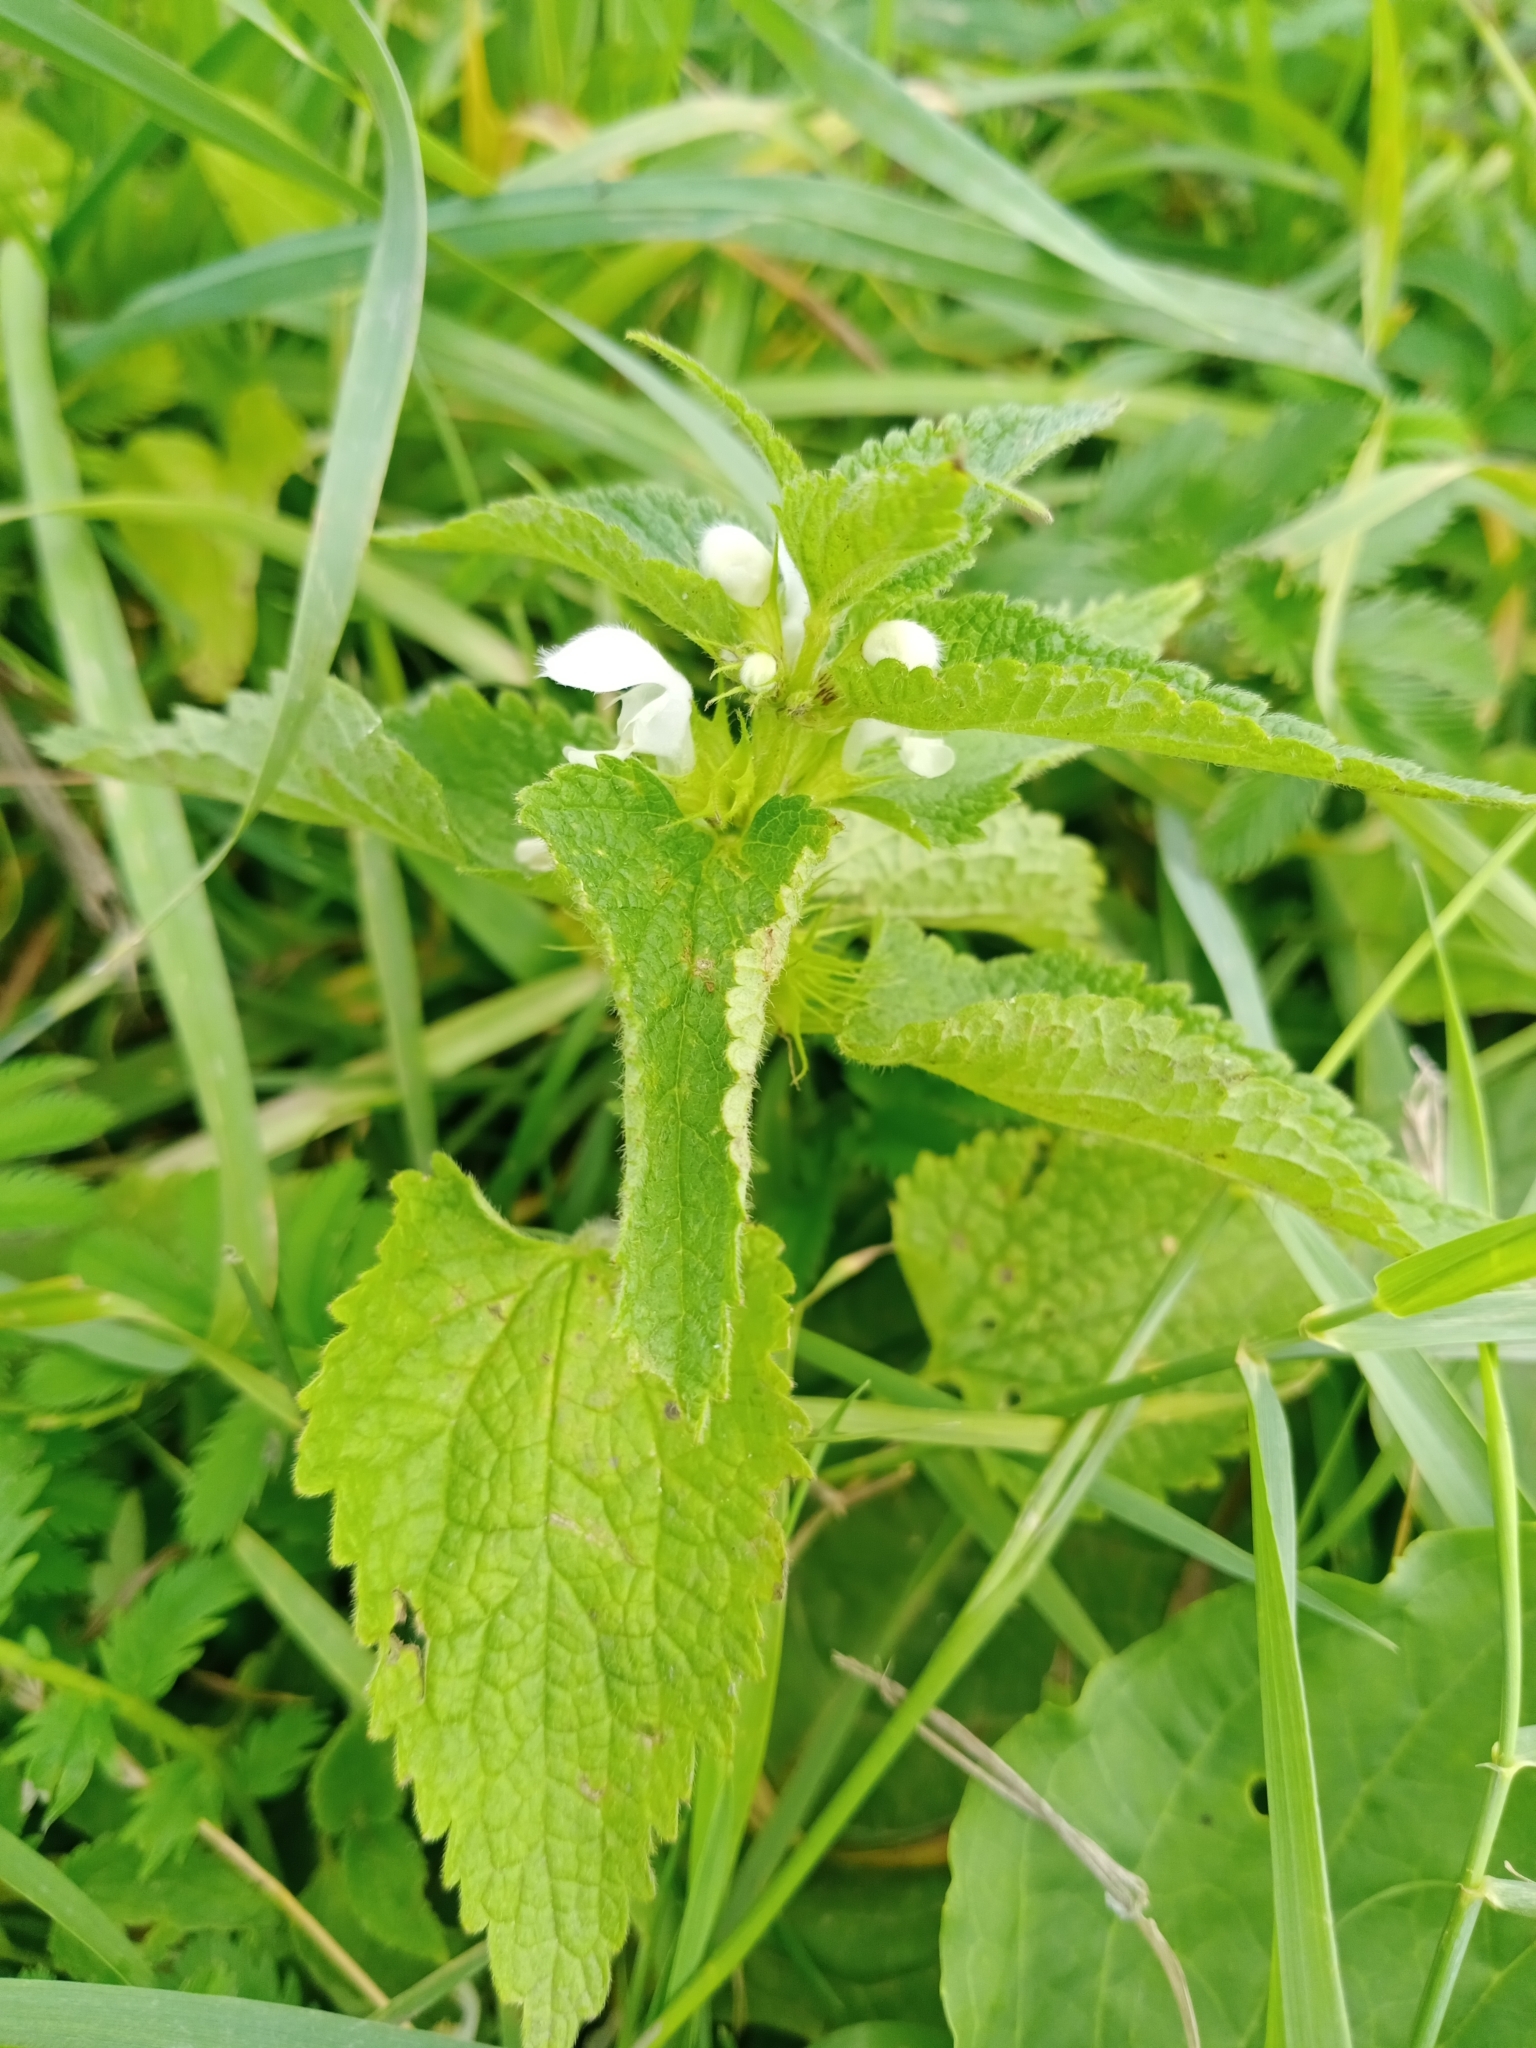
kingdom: Plantae
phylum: Tracheophyta
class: Magnoliopsida
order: Lamiales
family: Lamiaceae
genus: Lamium
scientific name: Lamium album
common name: White dead-nettle
